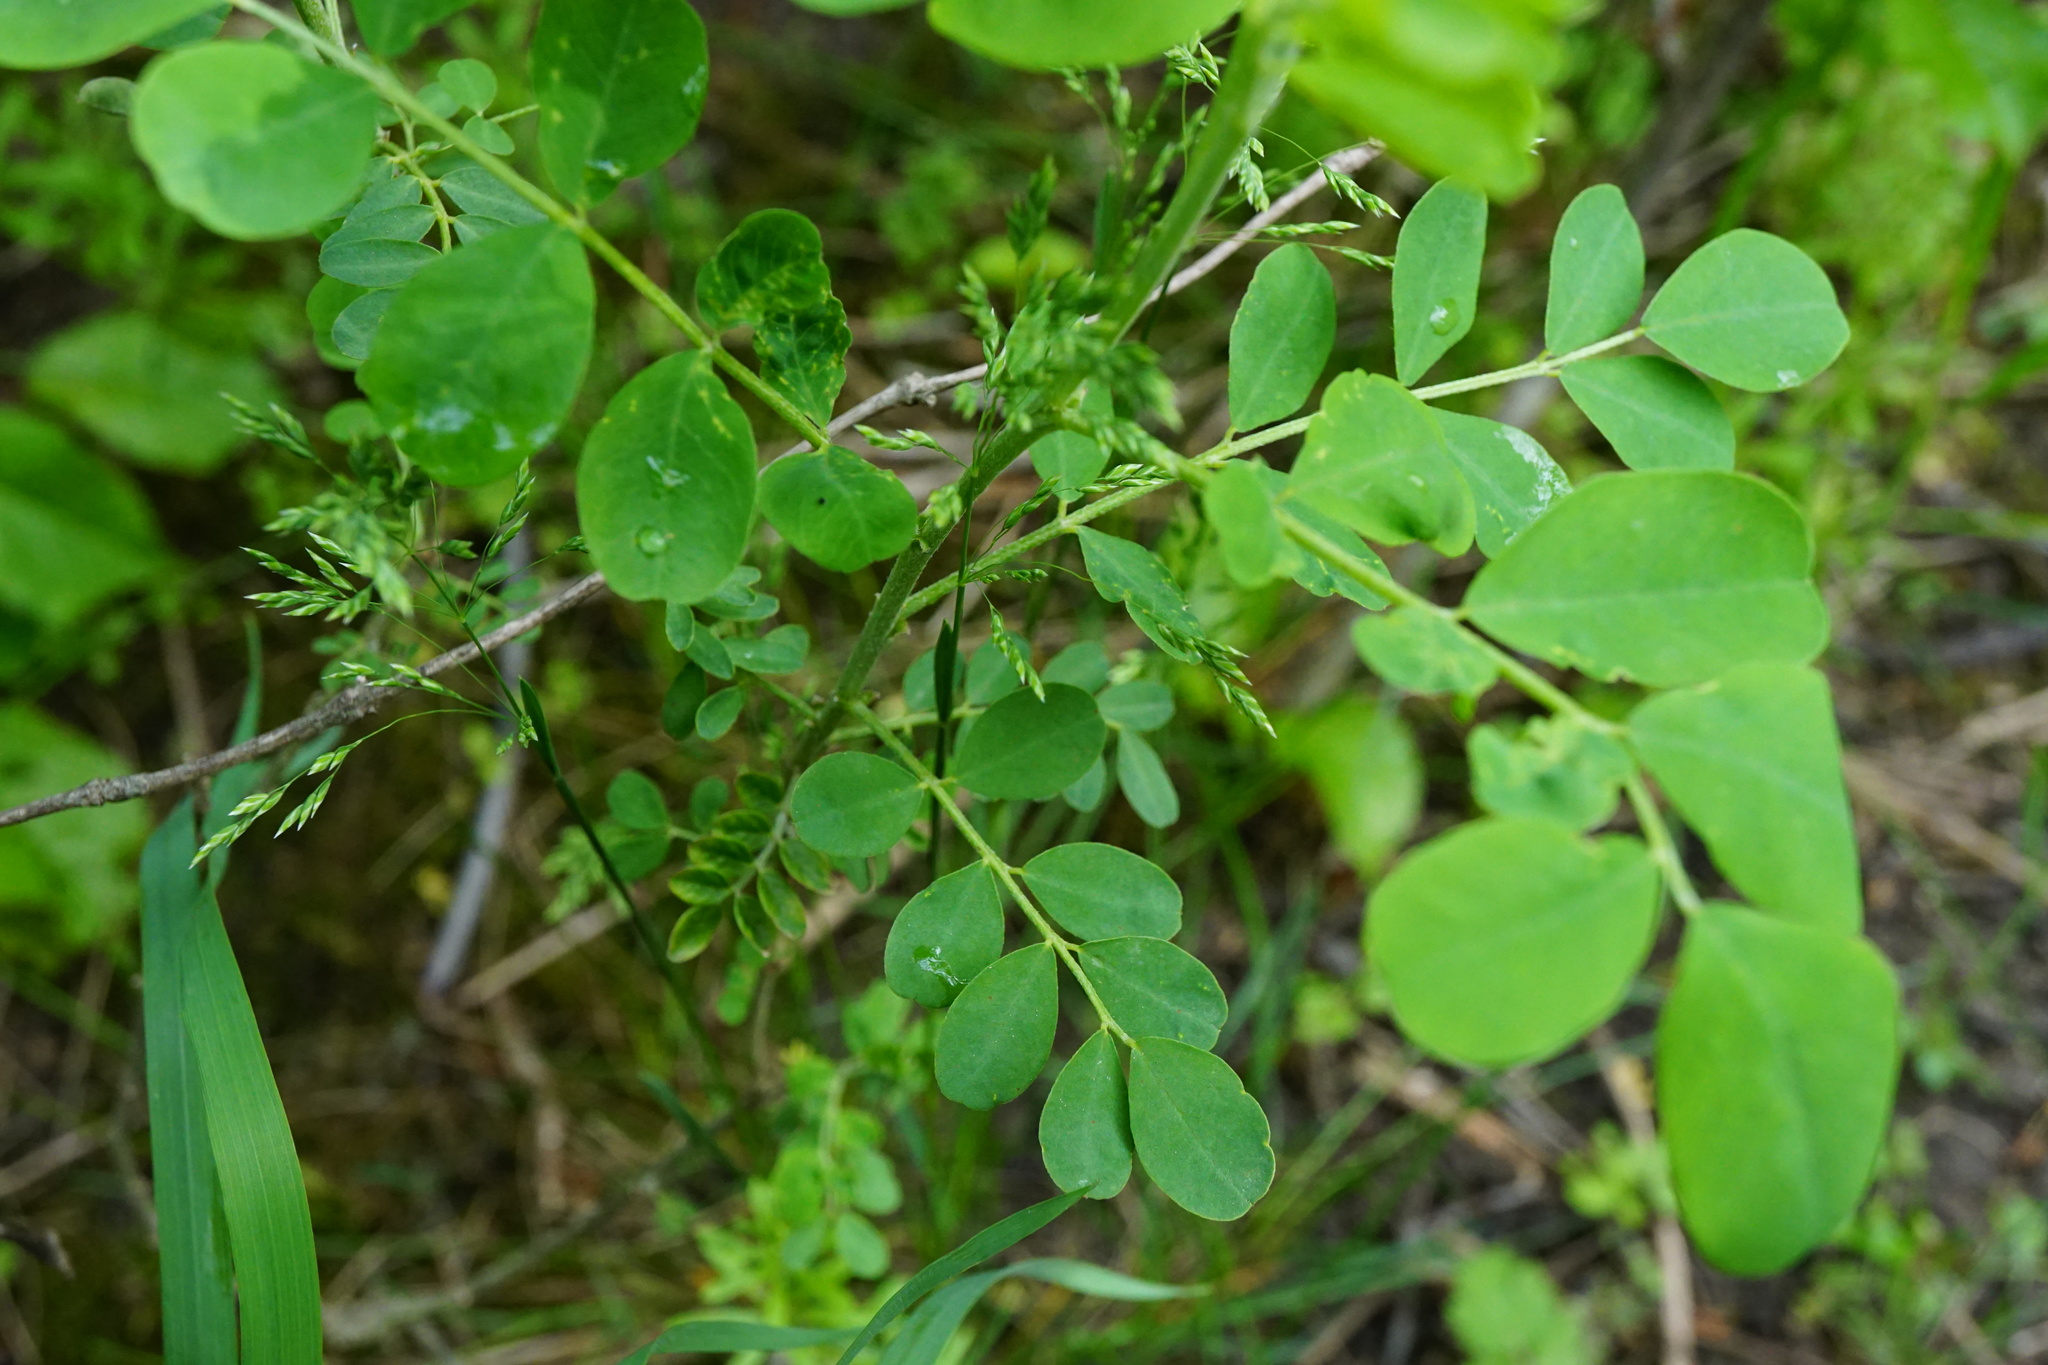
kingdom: Plantae
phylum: Tracheophyta
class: Magnoliopsida
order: Fabales
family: Fabaceae
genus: Hippocrepis
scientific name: Hippocrepis emerus
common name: Scorpion senna
